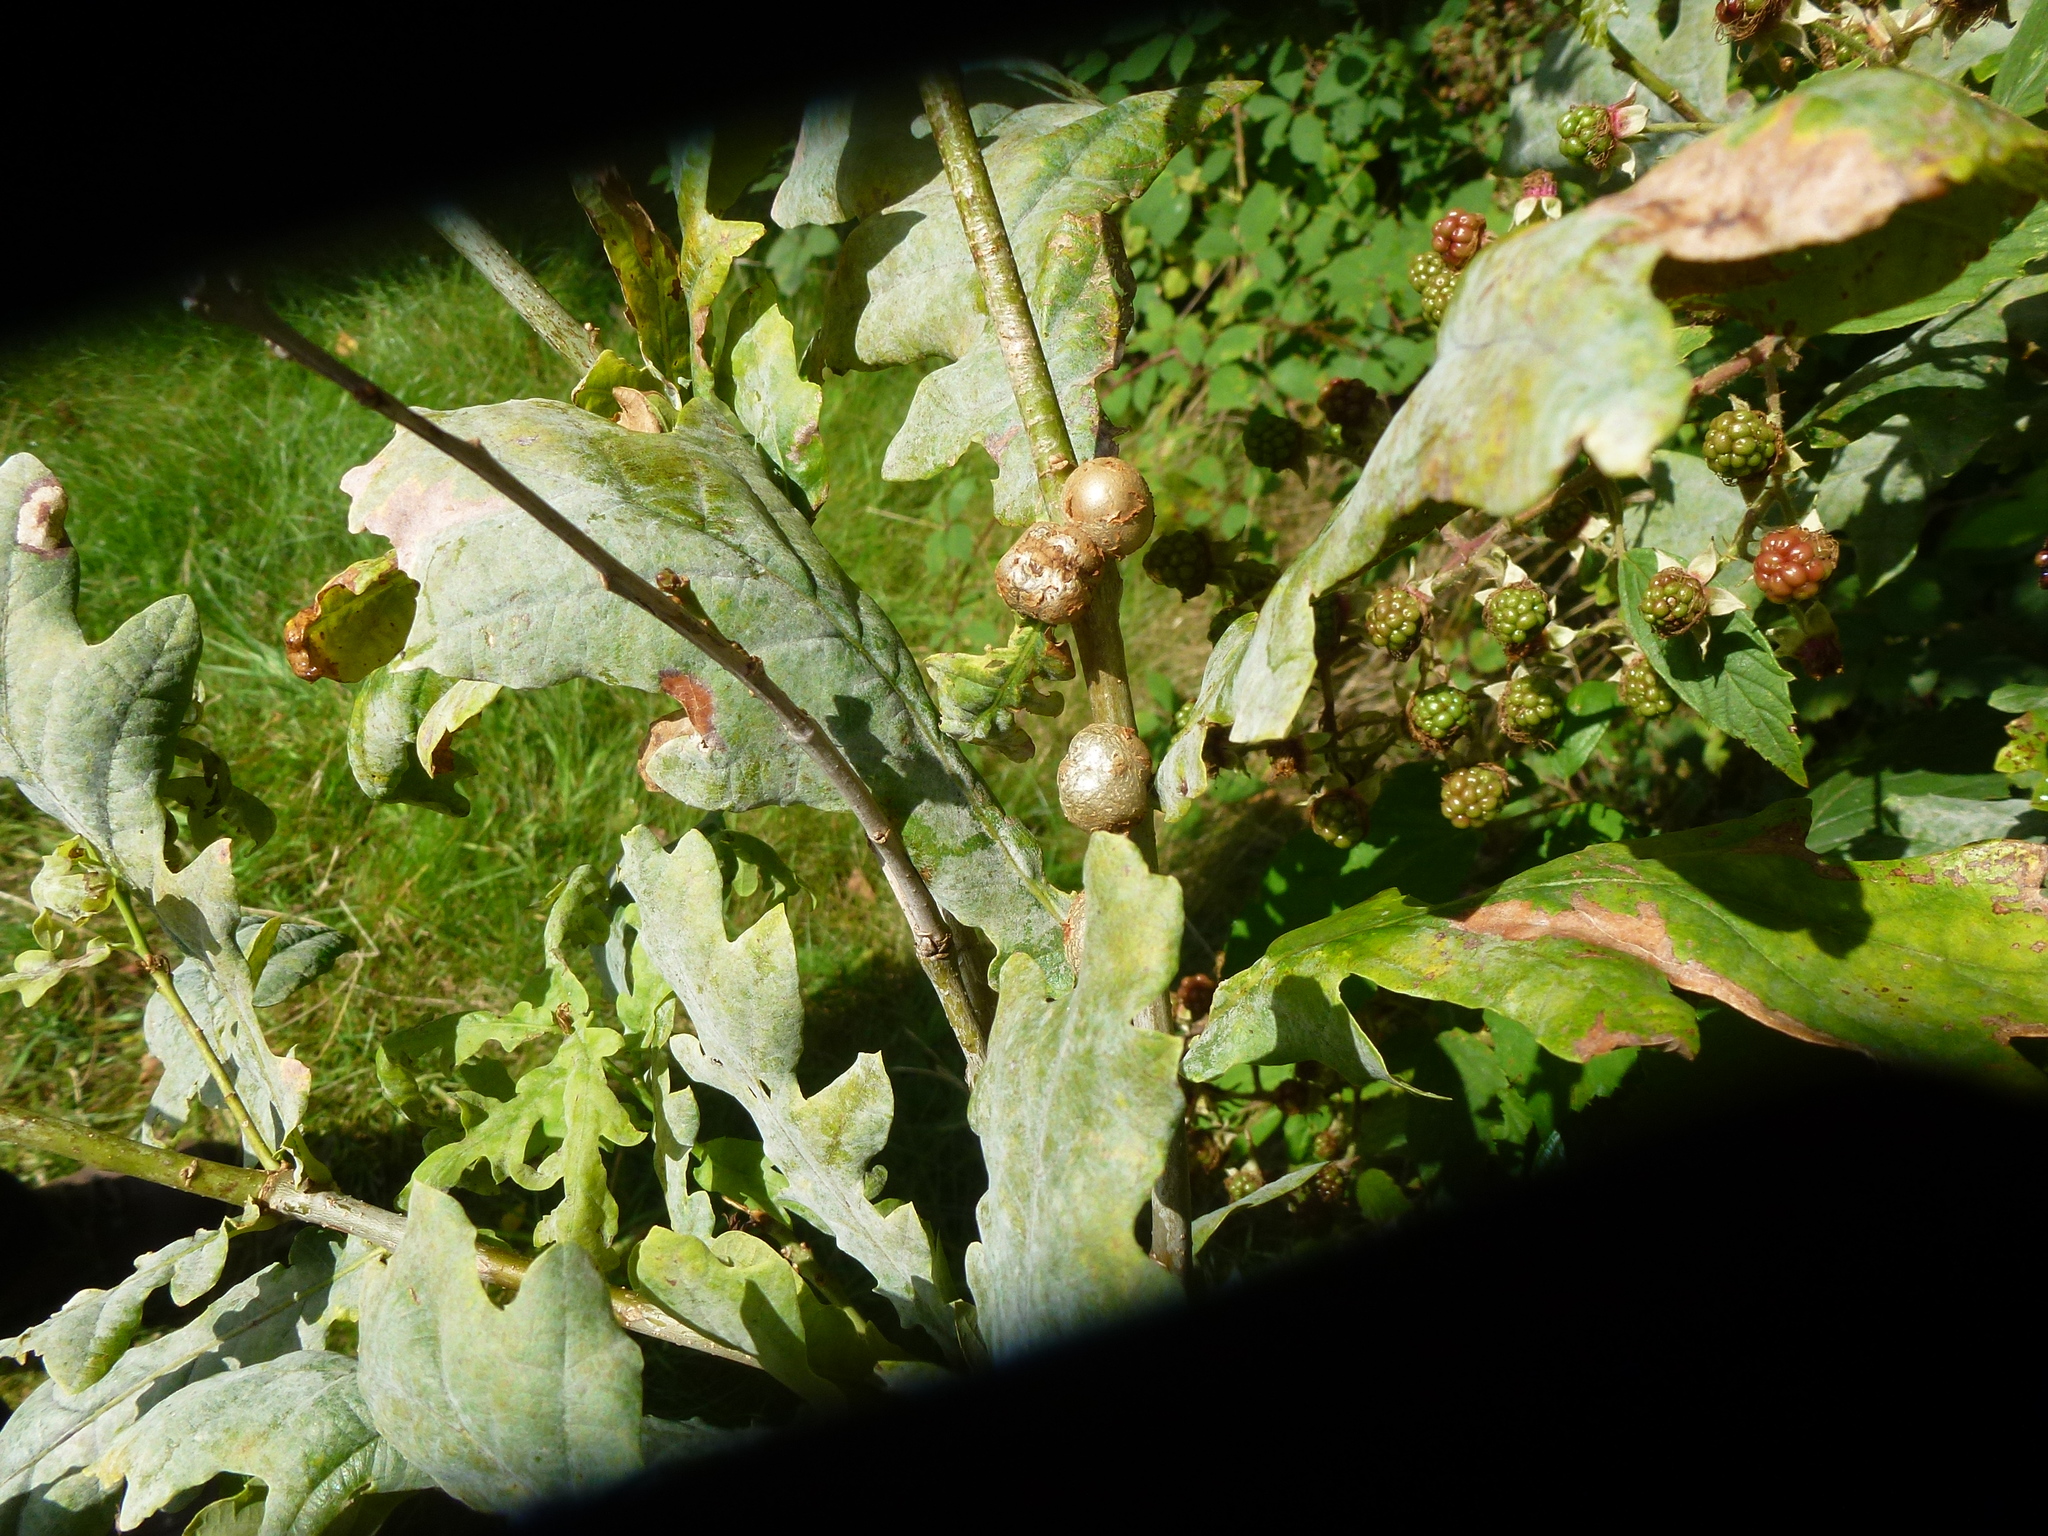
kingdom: Animalia
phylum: Arthropoda
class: Insecta
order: Hymenoptera
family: Cynipidae
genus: Andricus
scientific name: Andricus lignicolus
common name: Cola-nut gall
